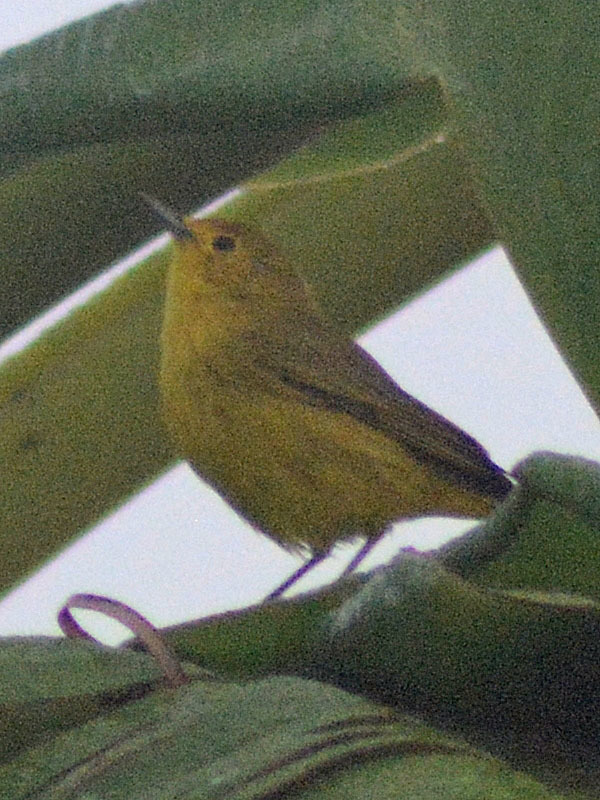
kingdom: Animalia
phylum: Chordata
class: Aves
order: Passeriformes
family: Parulidae
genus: Setophaga
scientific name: Setophaga petechia
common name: Yellow warbler
